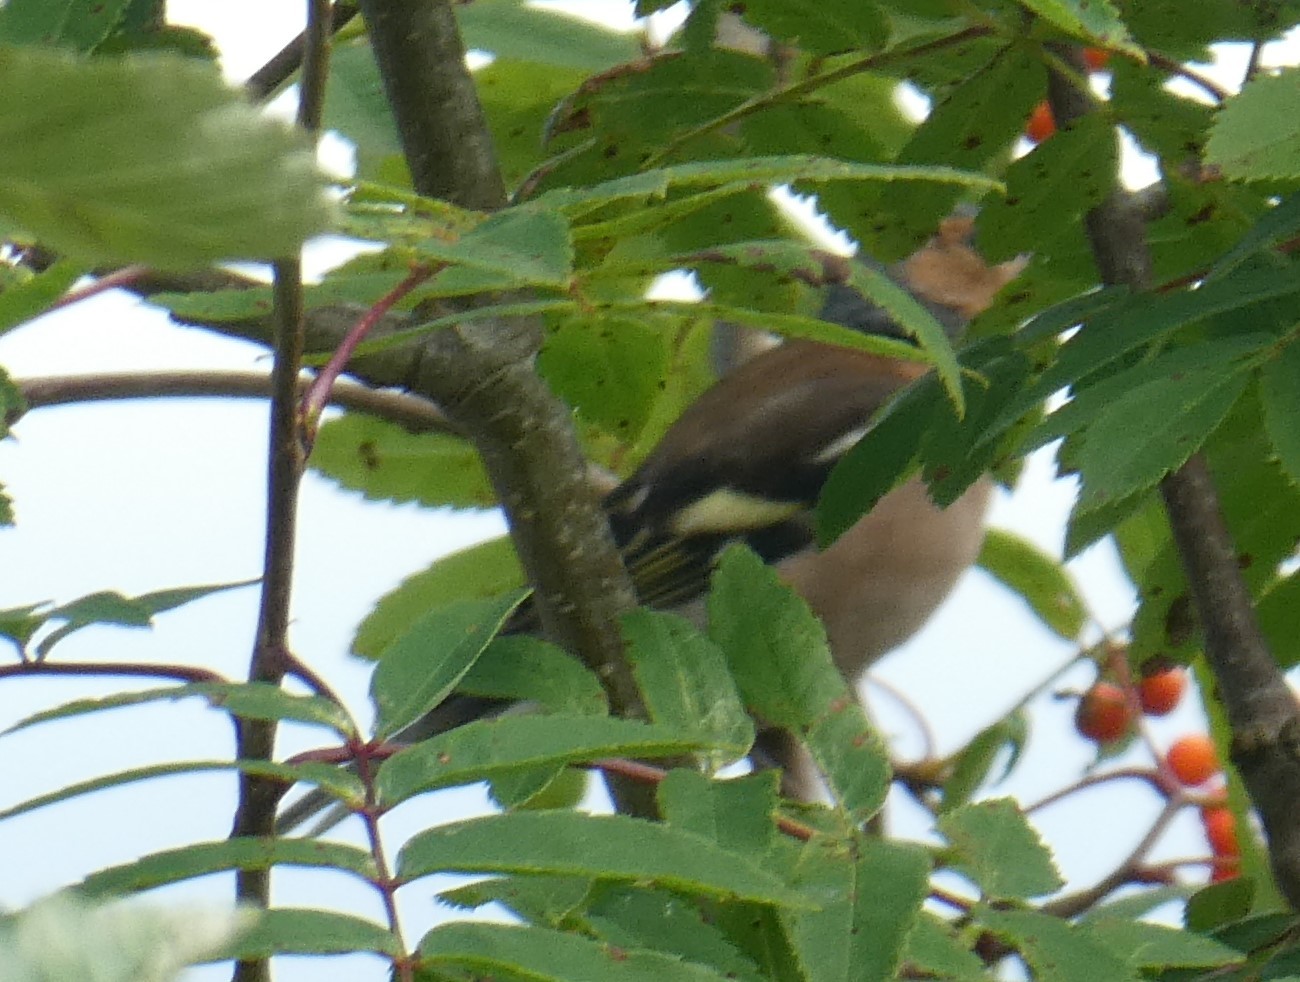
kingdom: Animalia
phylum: Chordata
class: Aves
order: Passeriformes
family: Fringillidae
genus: Fringilla
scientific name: Fringilla coelebs
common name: Common chaffinch
